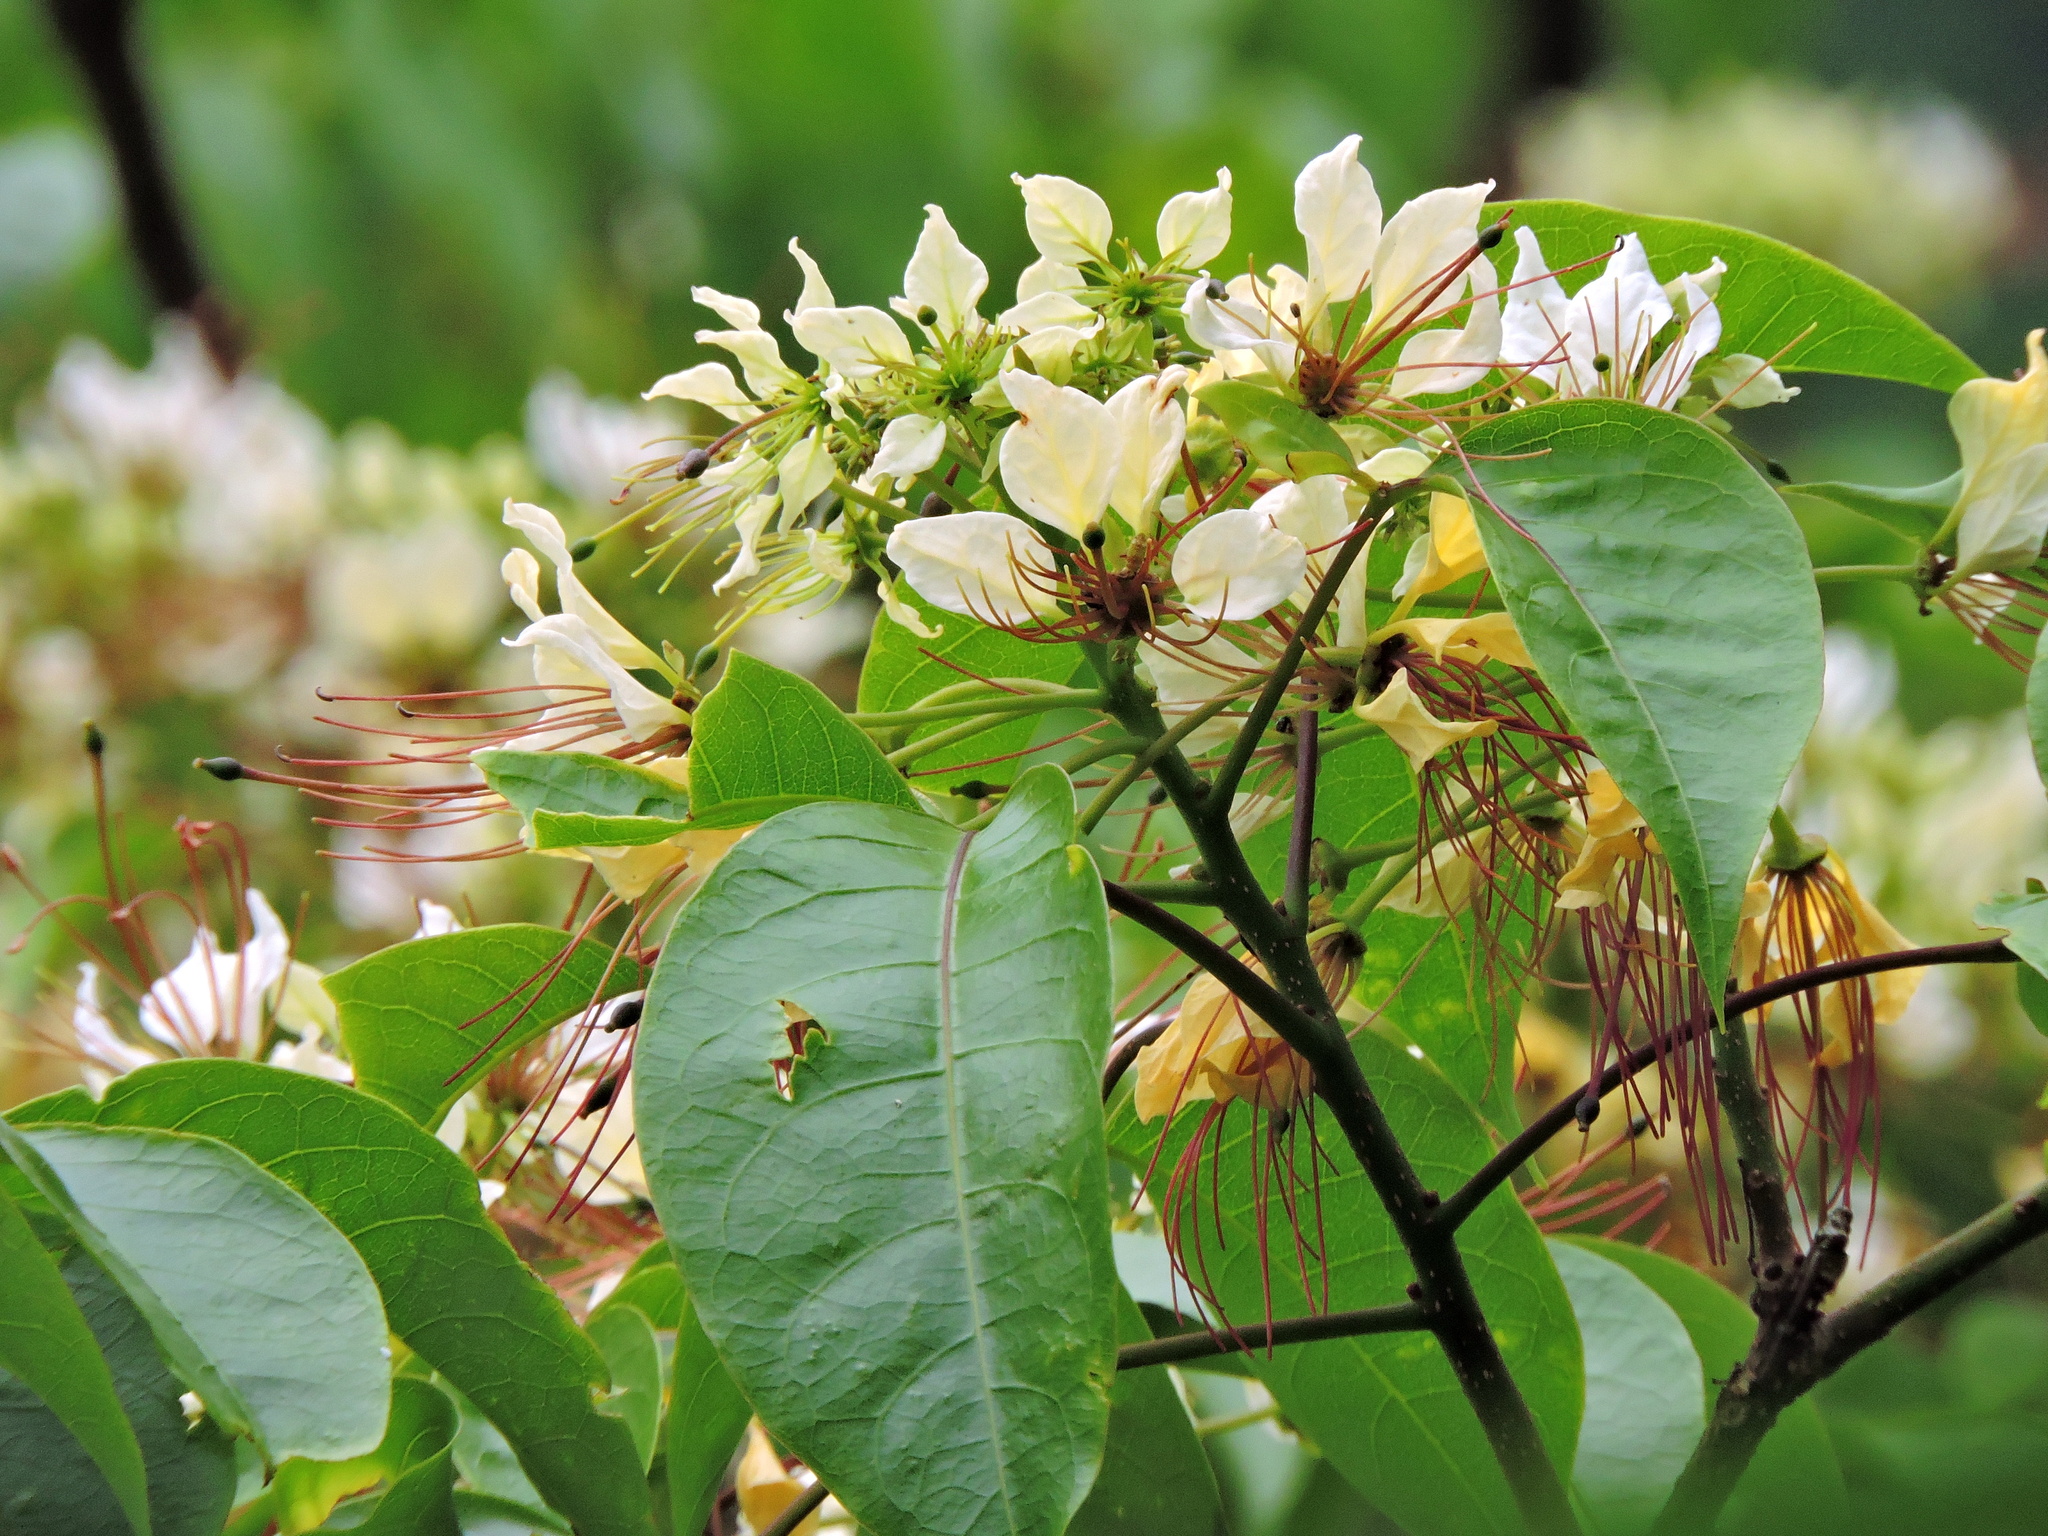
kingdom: Plantae
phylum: Tracheophyta
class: Magnoliopsida
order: Brassicales
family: Capparaceae
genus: Crateva
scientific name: Crateva formosensis
